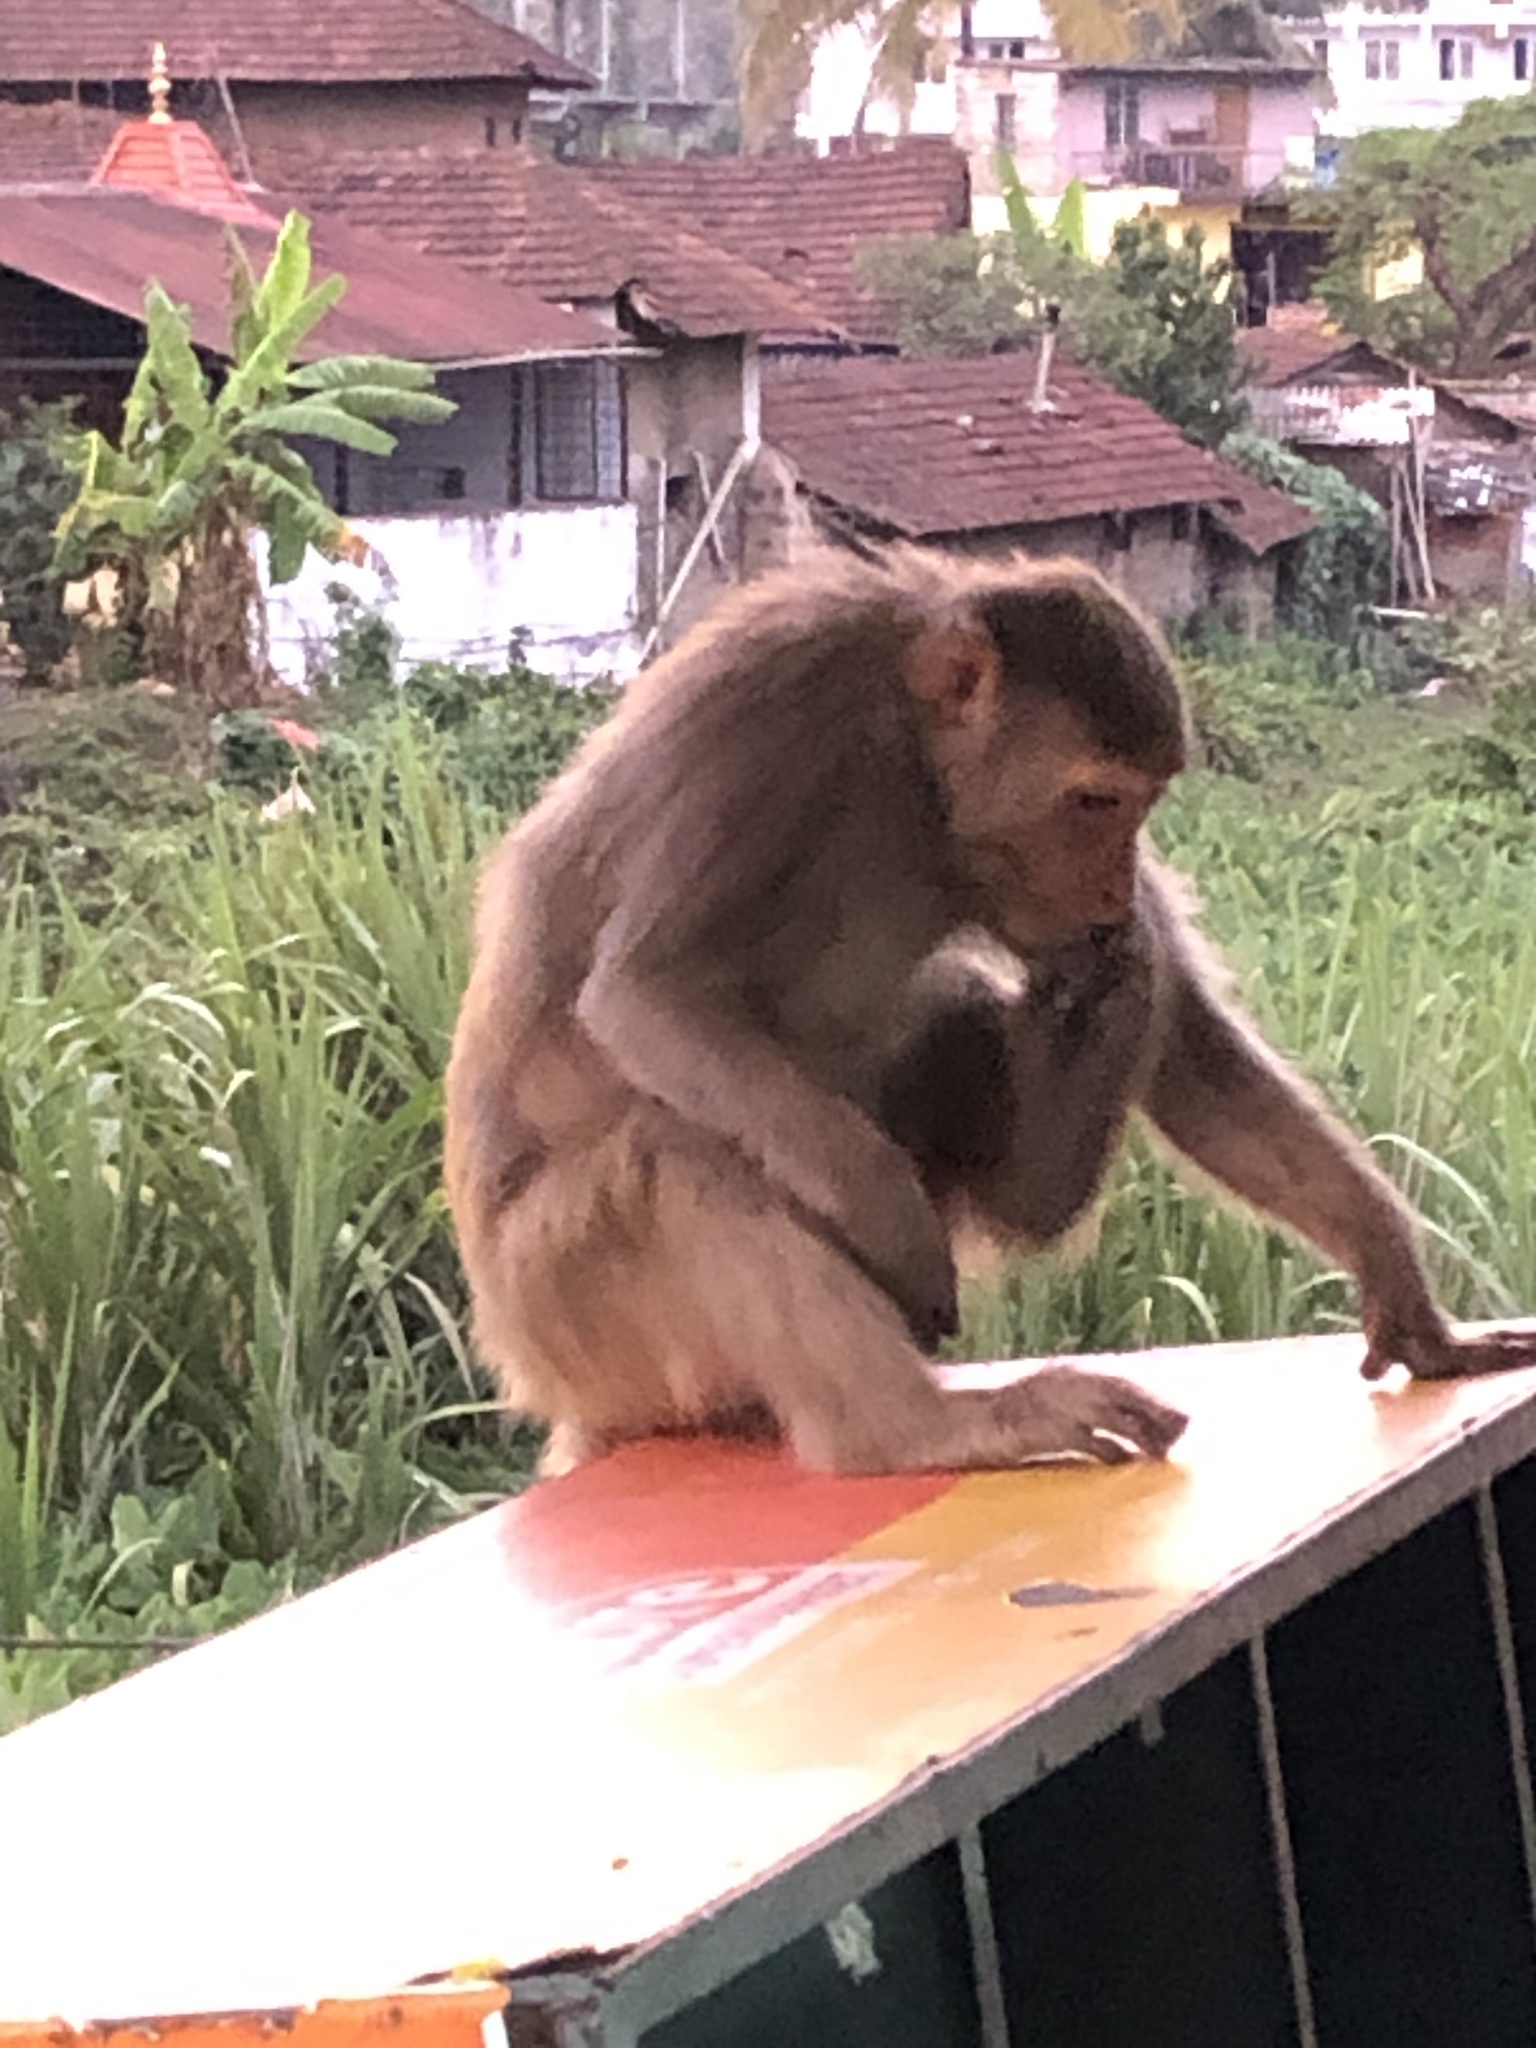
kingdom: Animalia
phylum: Chordata
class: Mammalia
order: Primates
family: Cercopithecidae
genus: Macaca
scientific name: Macaca mulatta
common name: Rhesus monkey
